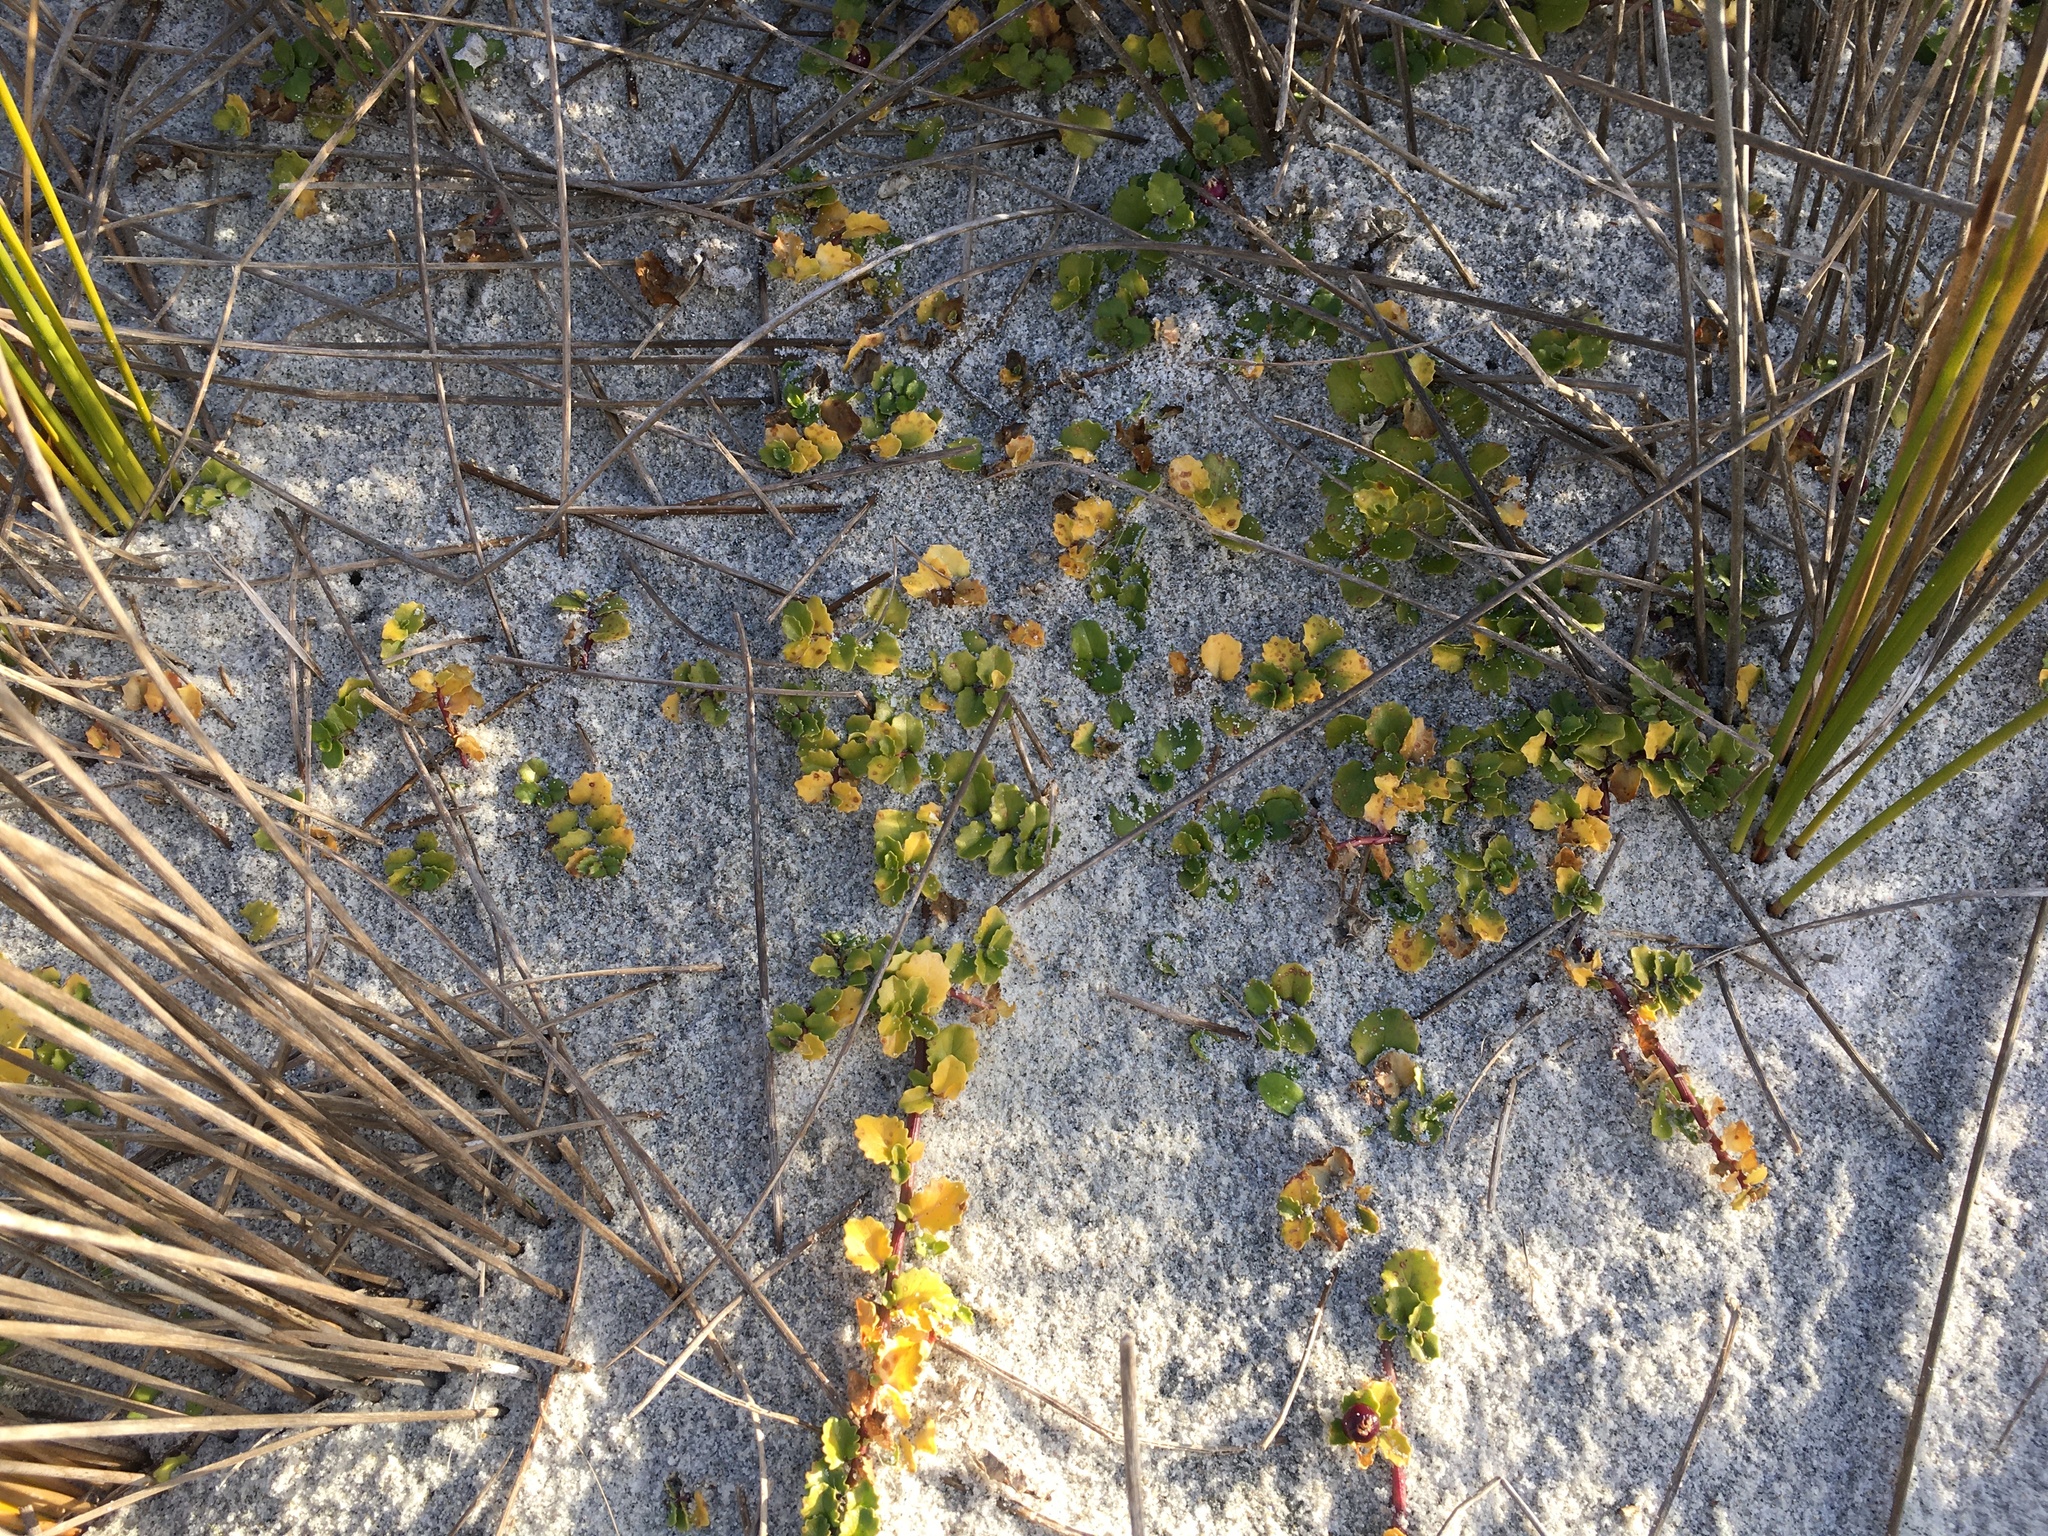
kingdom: Plantae
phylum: Tracheophyta
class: Magnoliopsida
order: Asterales
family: Campanulaceae
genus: Lobelia
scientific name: Lobelia arenaria
